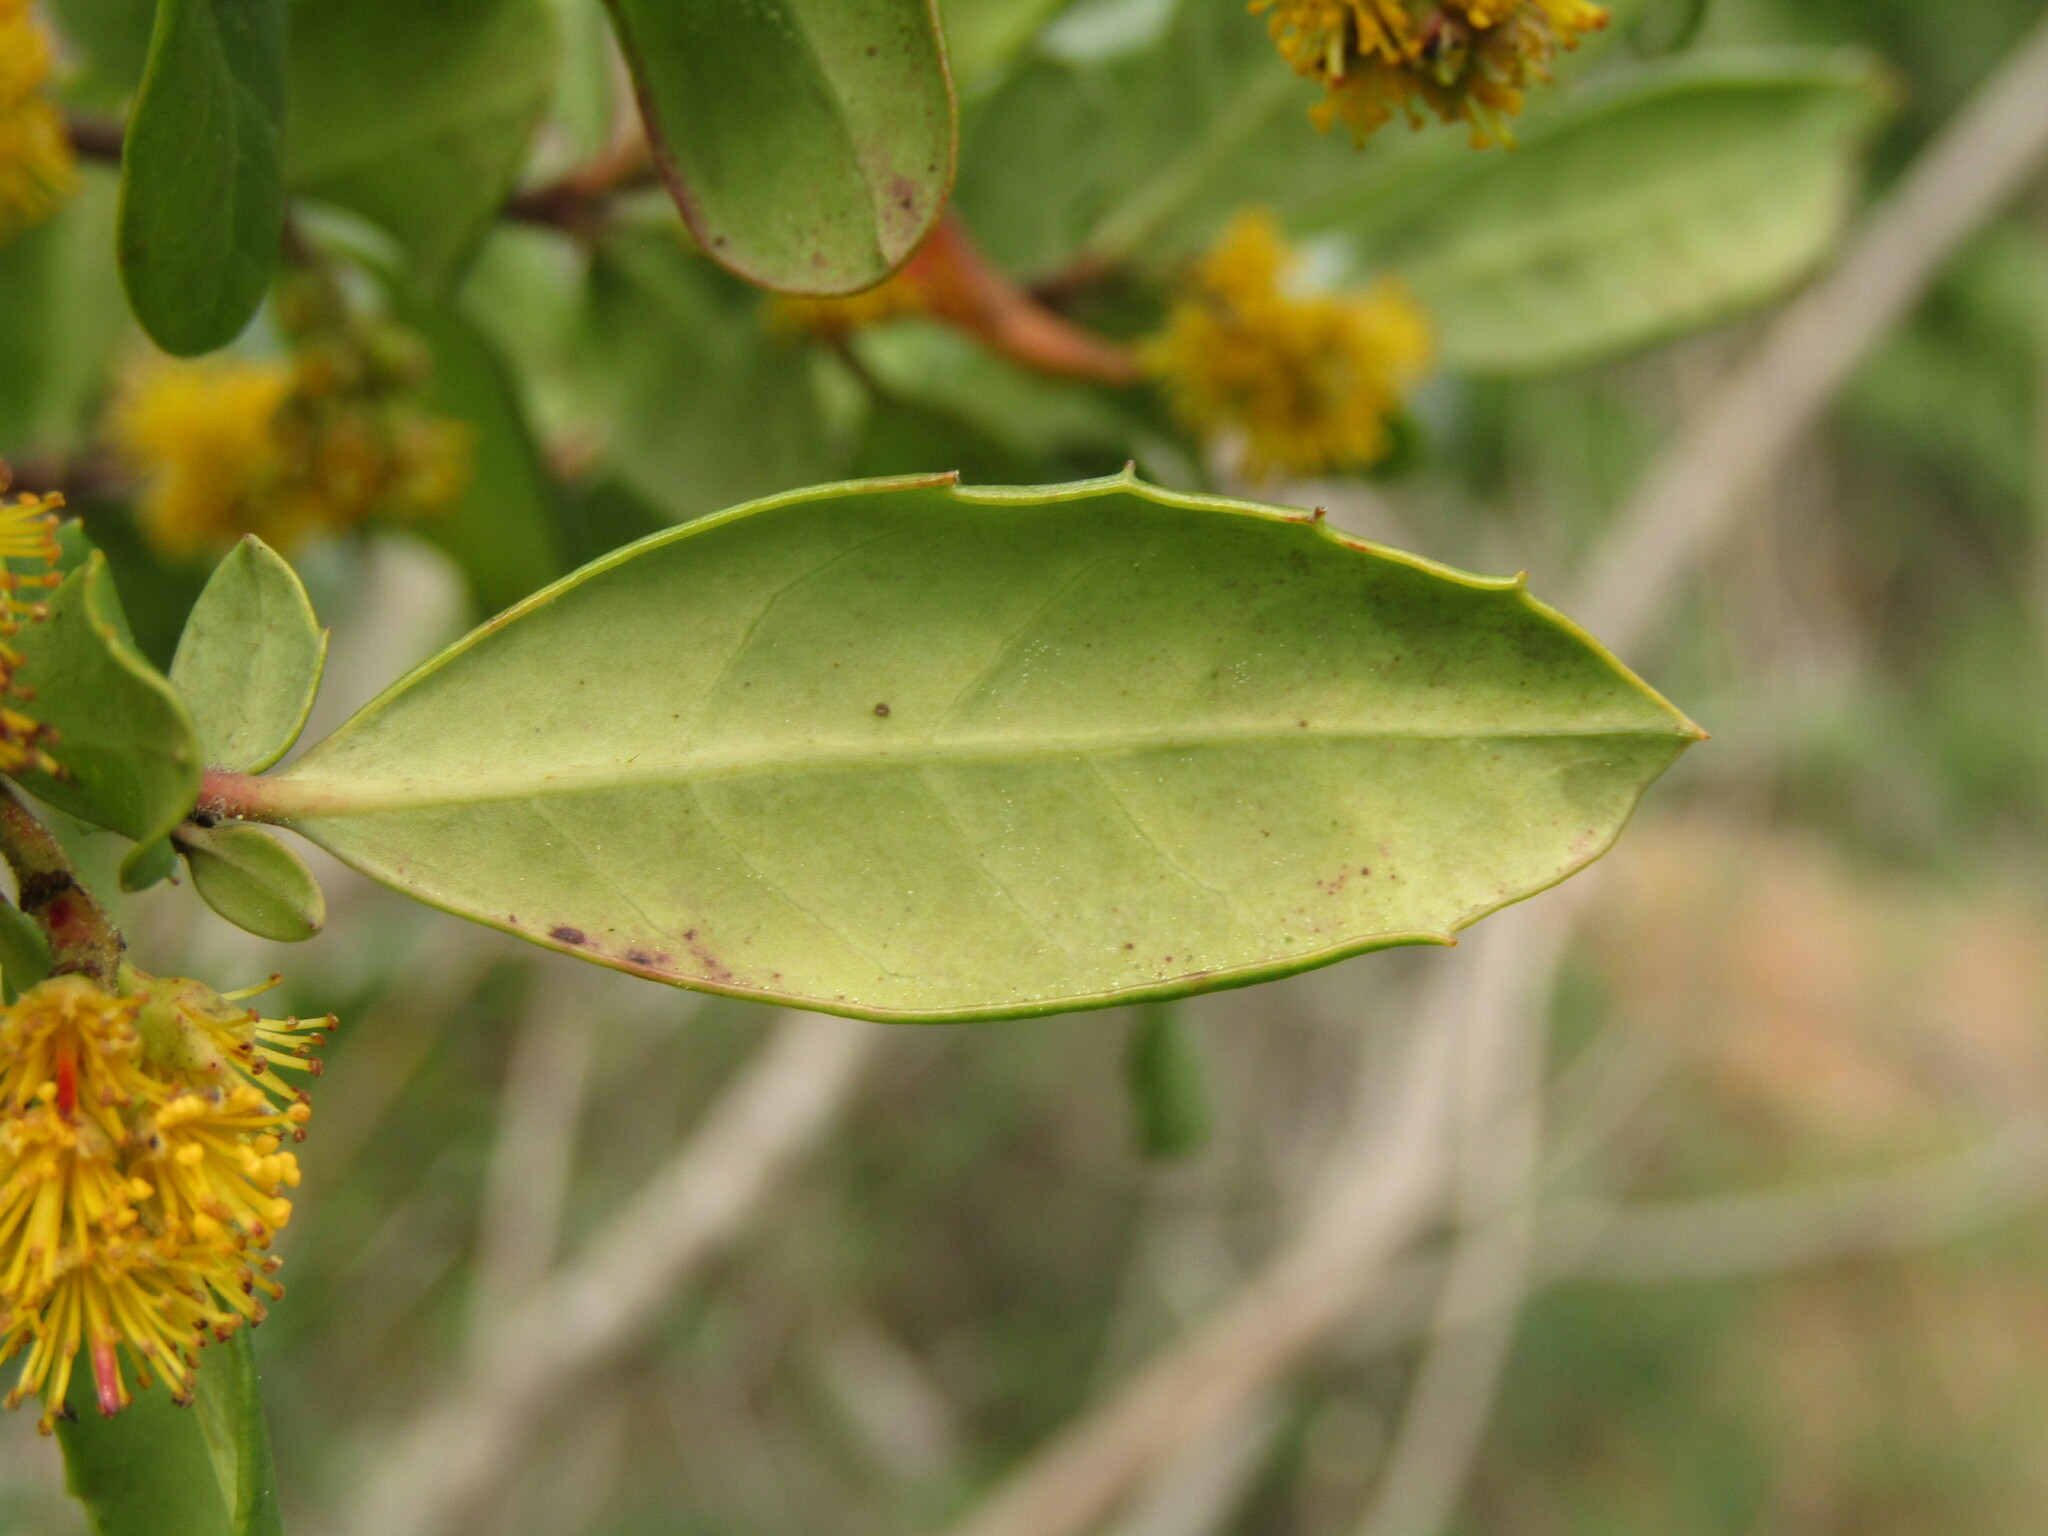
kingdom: Plantae
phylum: Tracheophyta
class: Magnoliopsida
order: Malpighiales
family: Salicaceae
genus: Azara
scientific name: Azara integrifolia
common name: Goldspire
